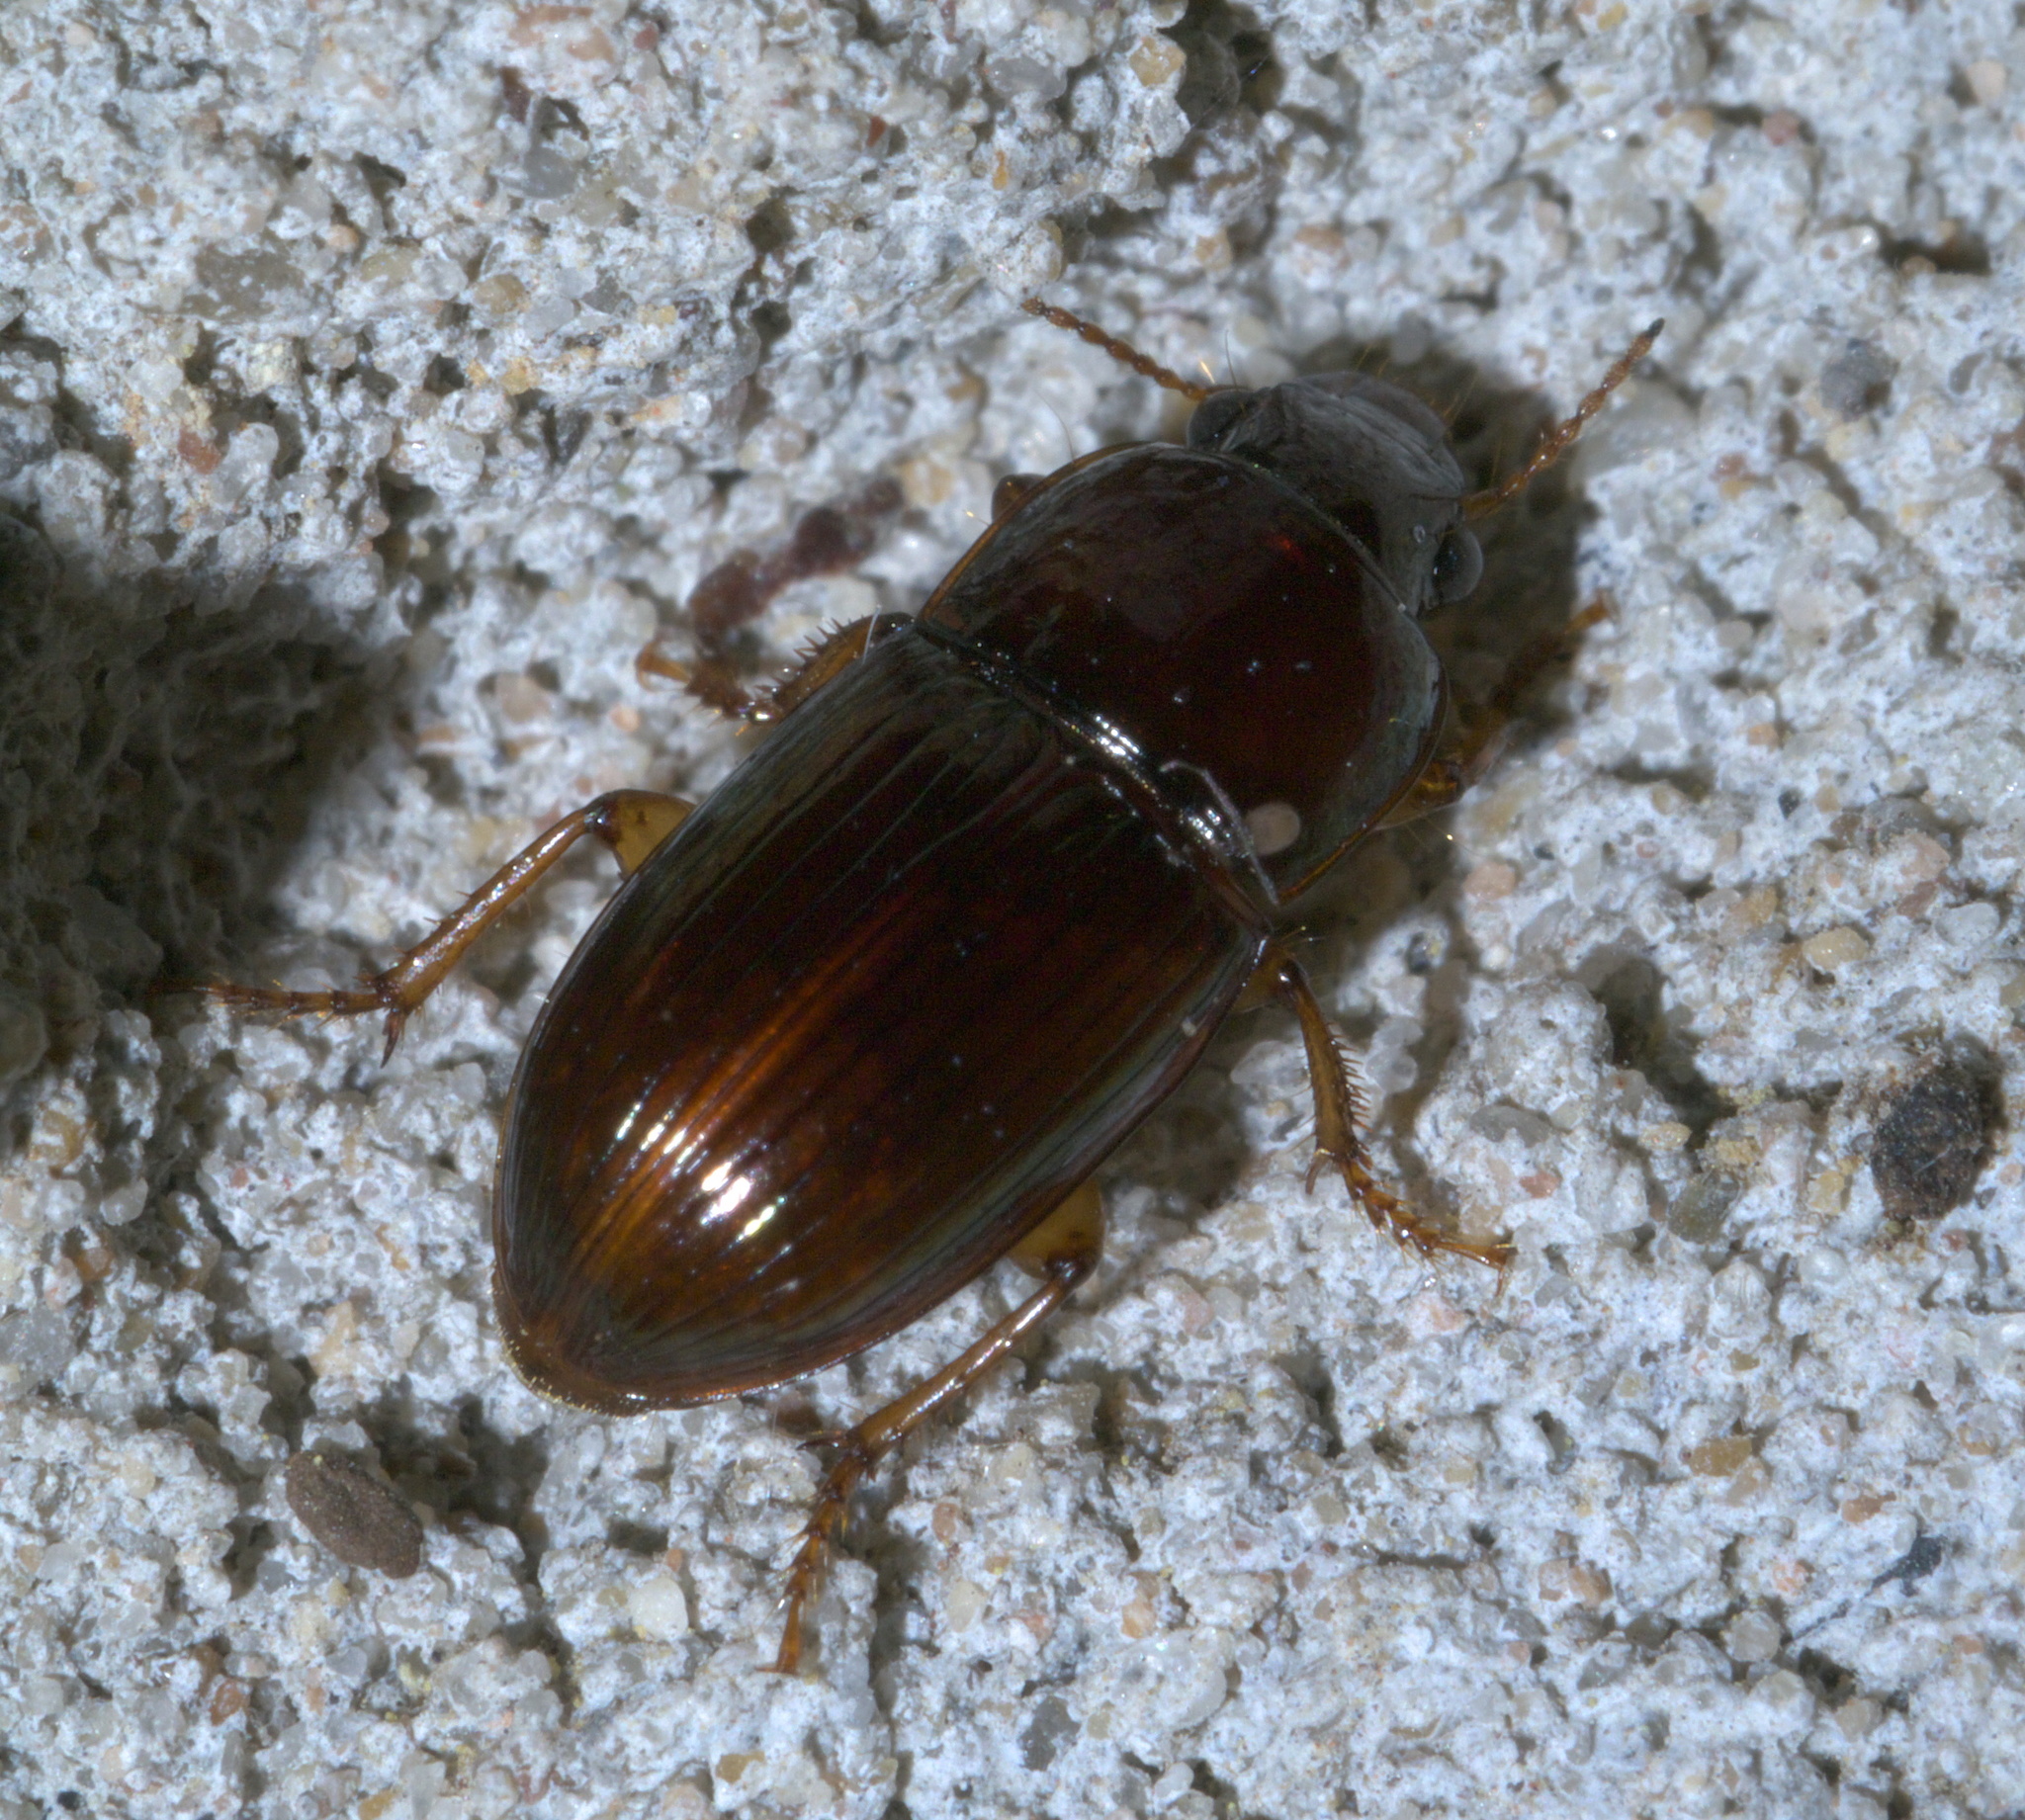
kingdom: Animalia
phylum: Arthropoda
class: Insecta
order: Coleoptera
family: Carabidae
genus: Harpalus
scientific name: Harpalus gravis
